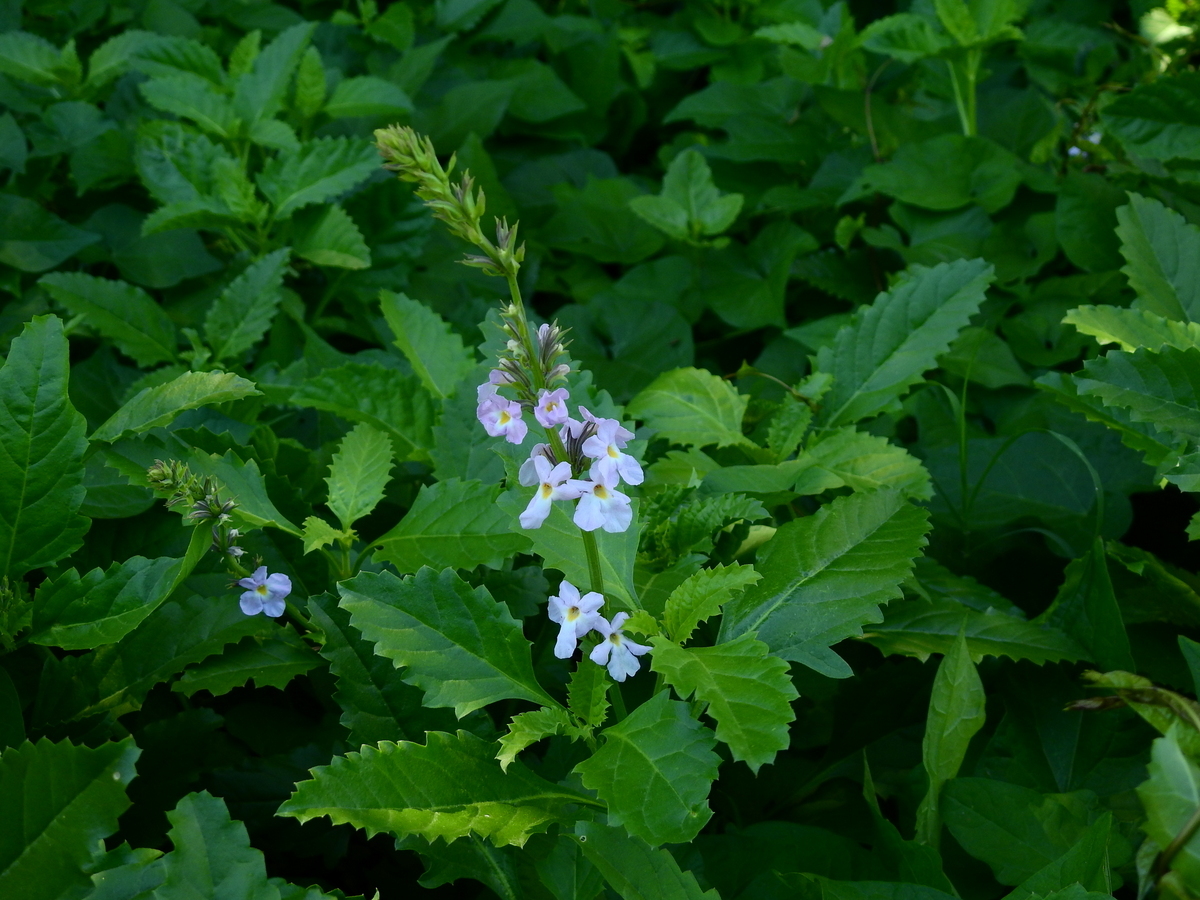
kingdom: Plantae
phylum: Tracheophyta
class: Magnoliopsida
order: Lamiales
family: Verbenaceae
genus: Pitraea
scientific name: Pitraea cuneato-ovata
